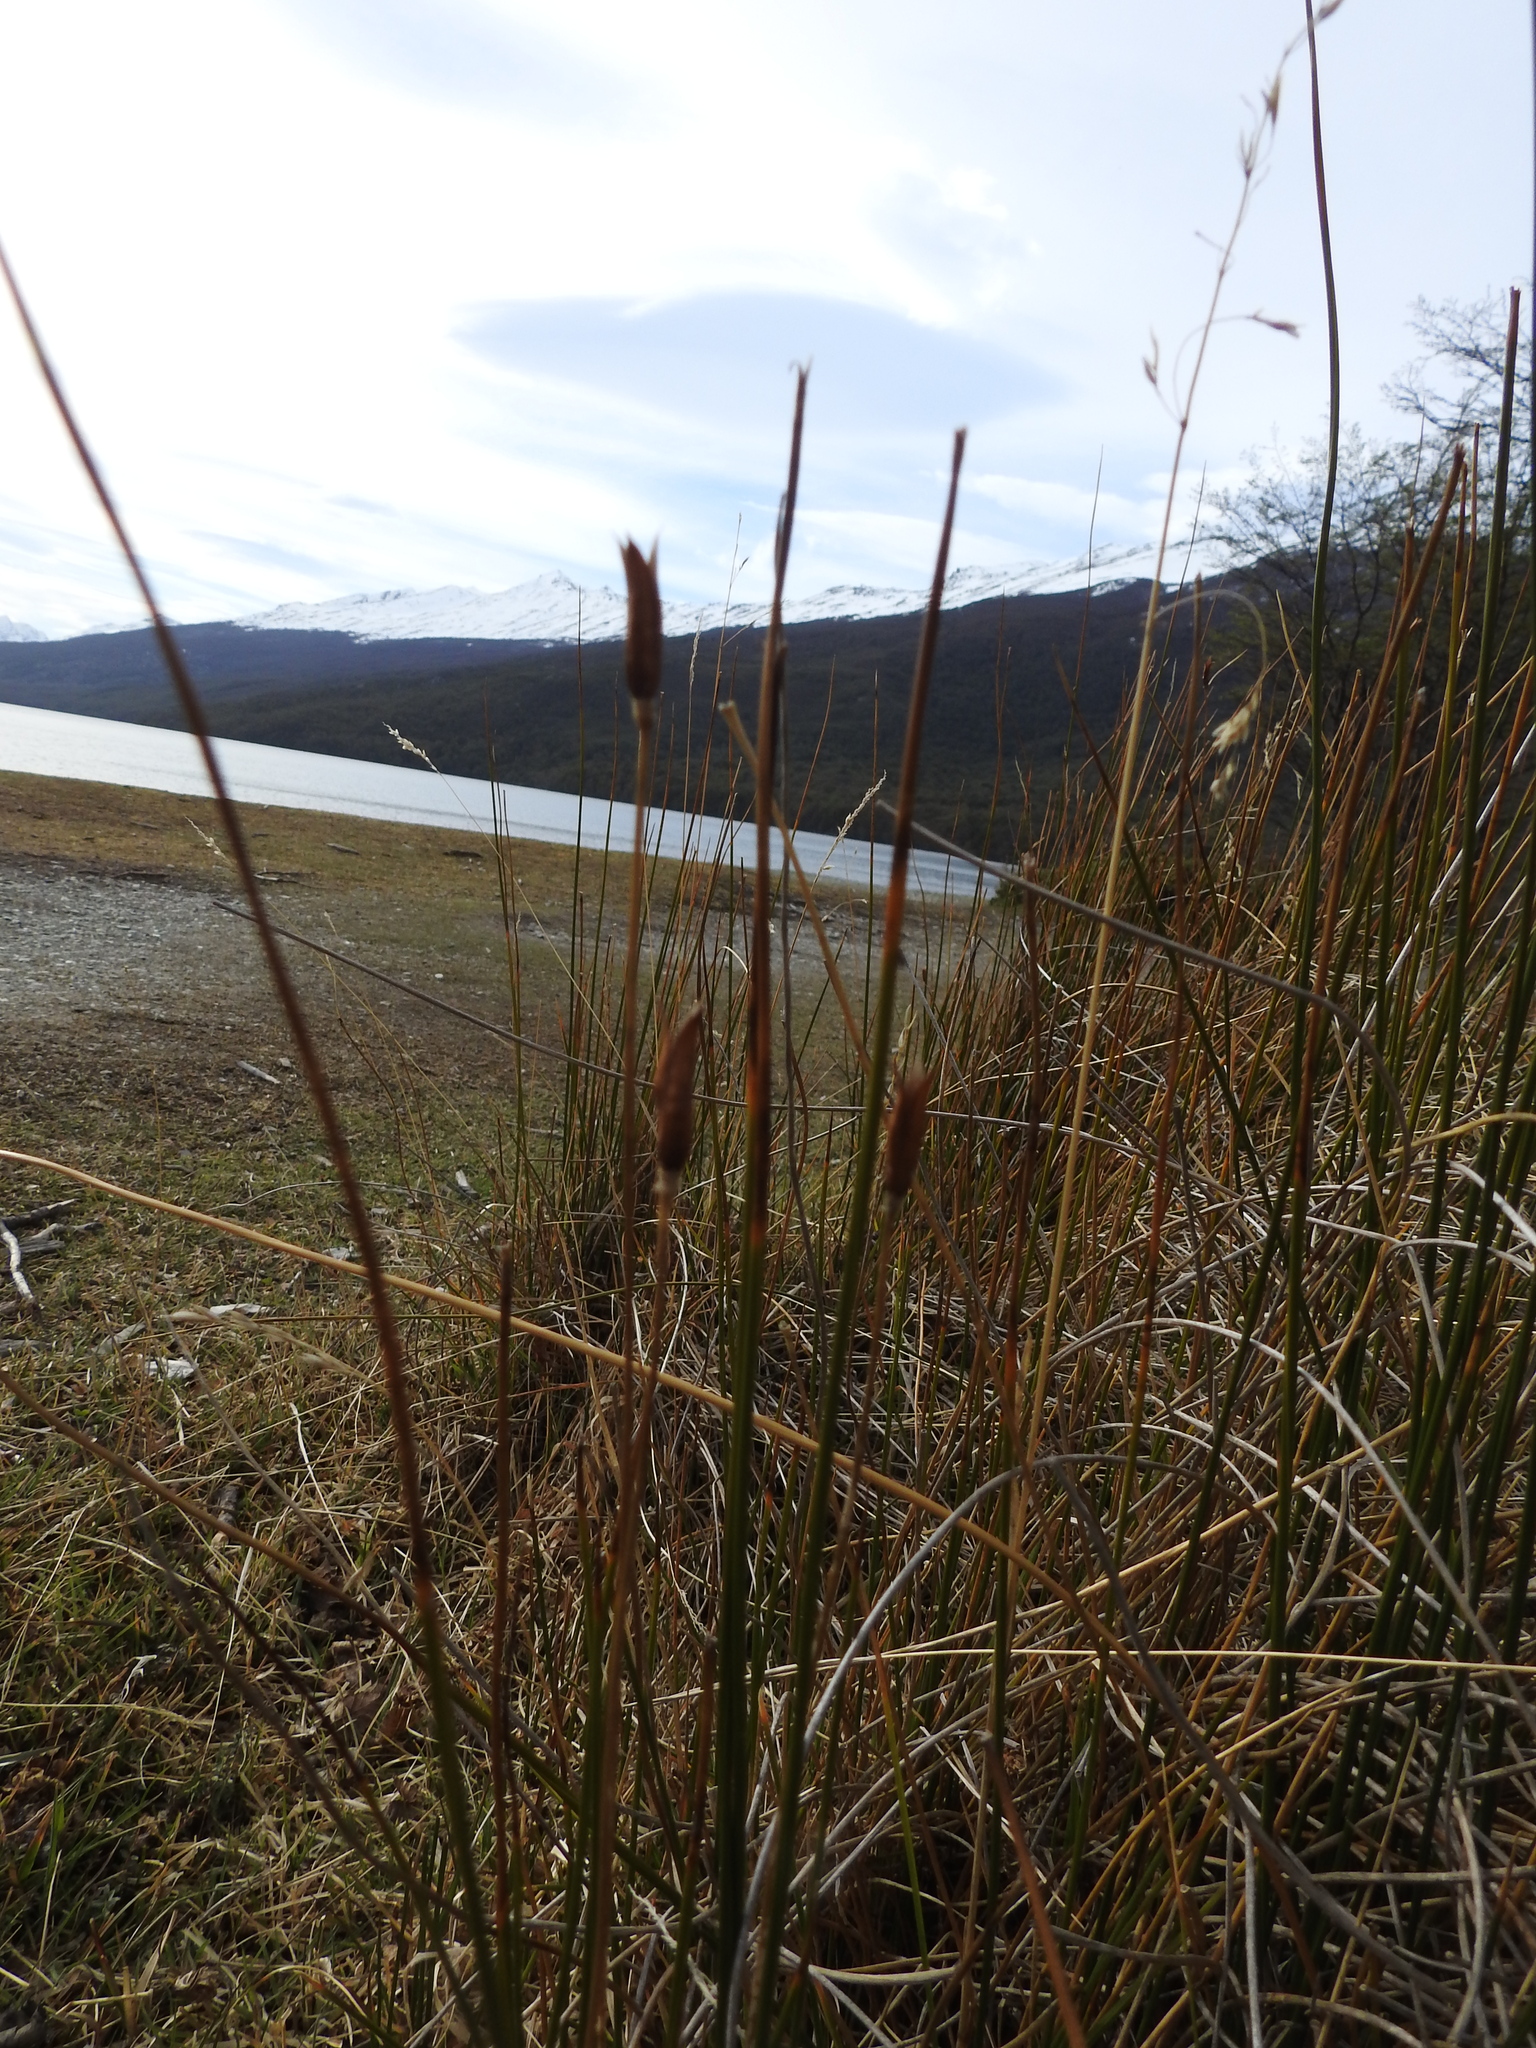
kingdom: Plantae
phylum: Tracheophyta
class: Liliopsida
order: Poales
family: Juncaceae
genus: Marsippospermum
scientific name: Marsippospermum grandiflorum
